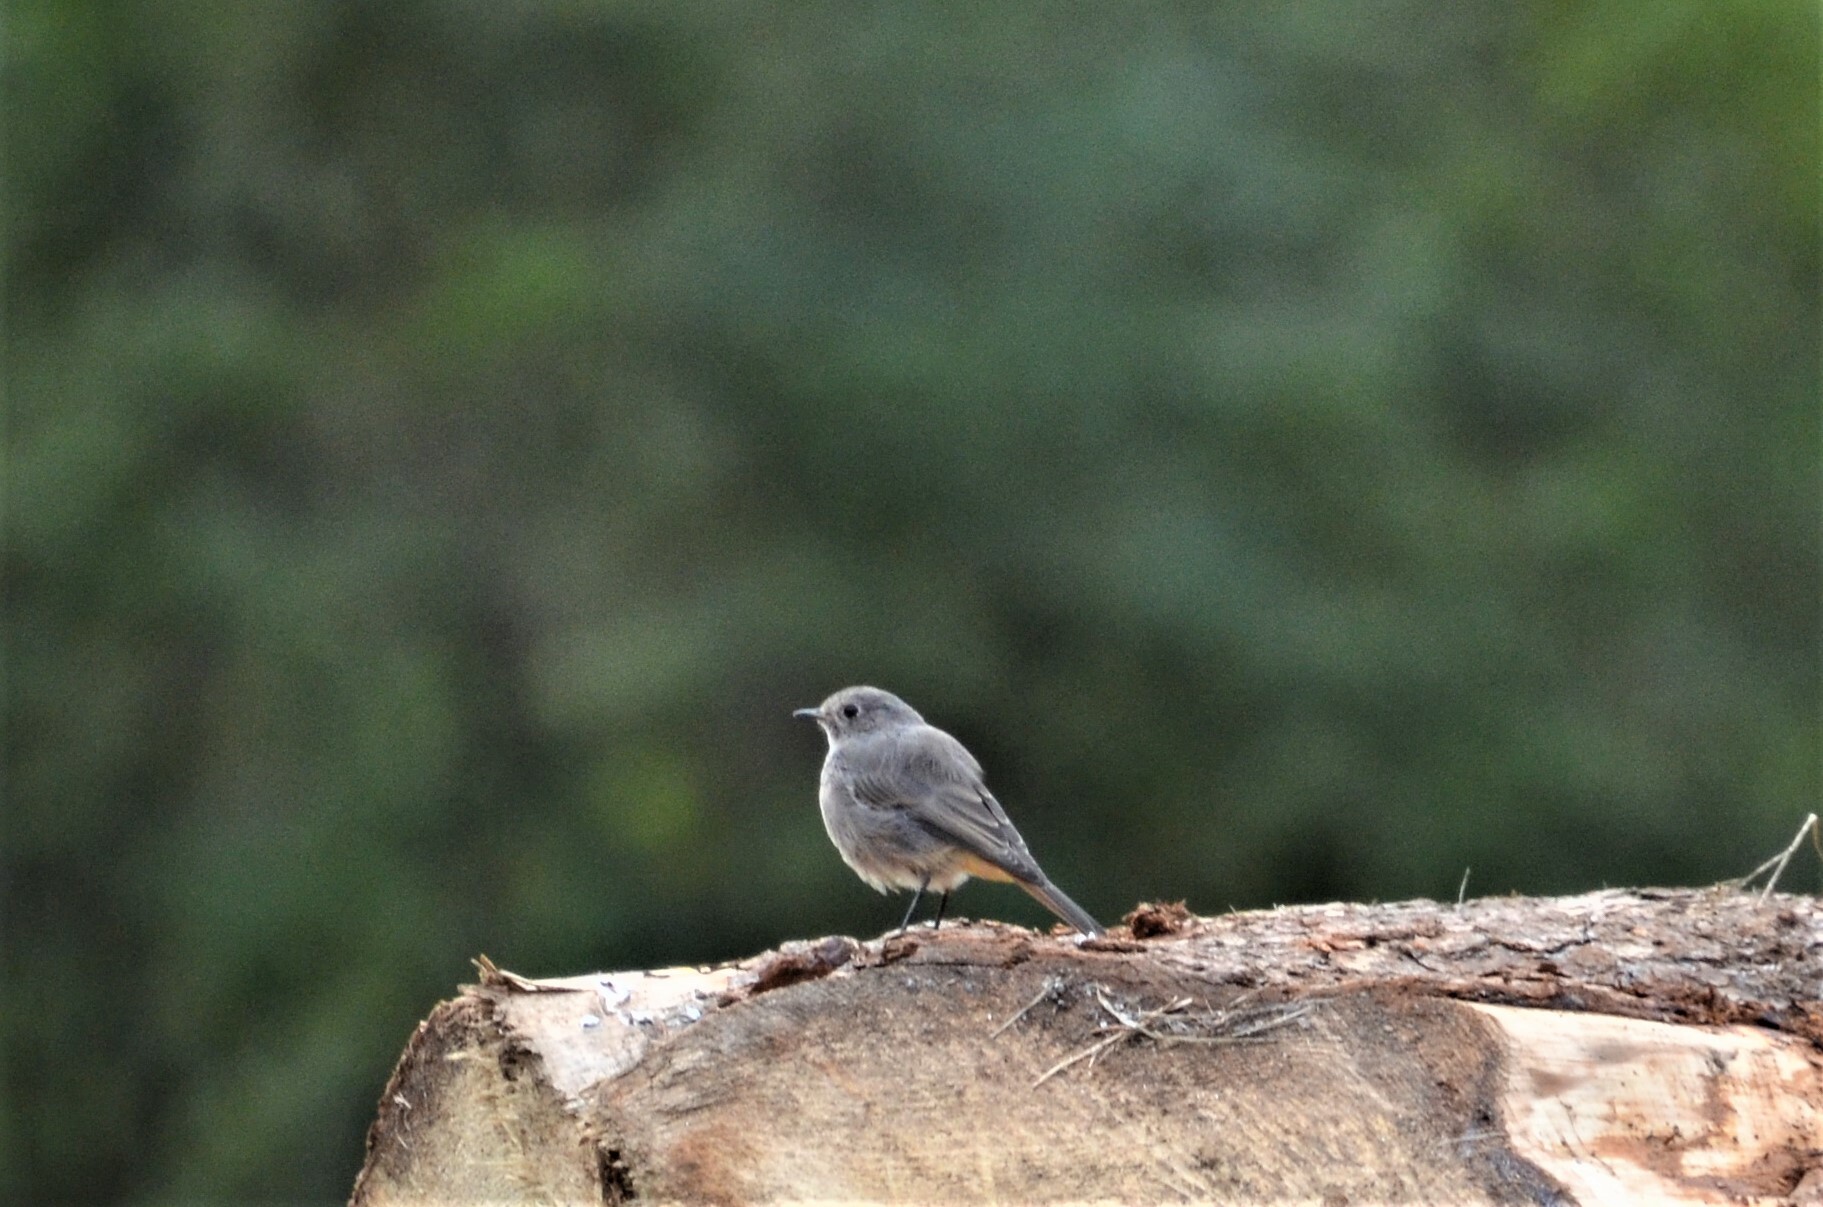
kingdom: Animalia
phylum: Chordata
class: Aves
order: Passeriformes
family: Muscicapidae
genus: Phoenicurus
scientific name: Phoenicurus ochruros
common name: Black redstart
